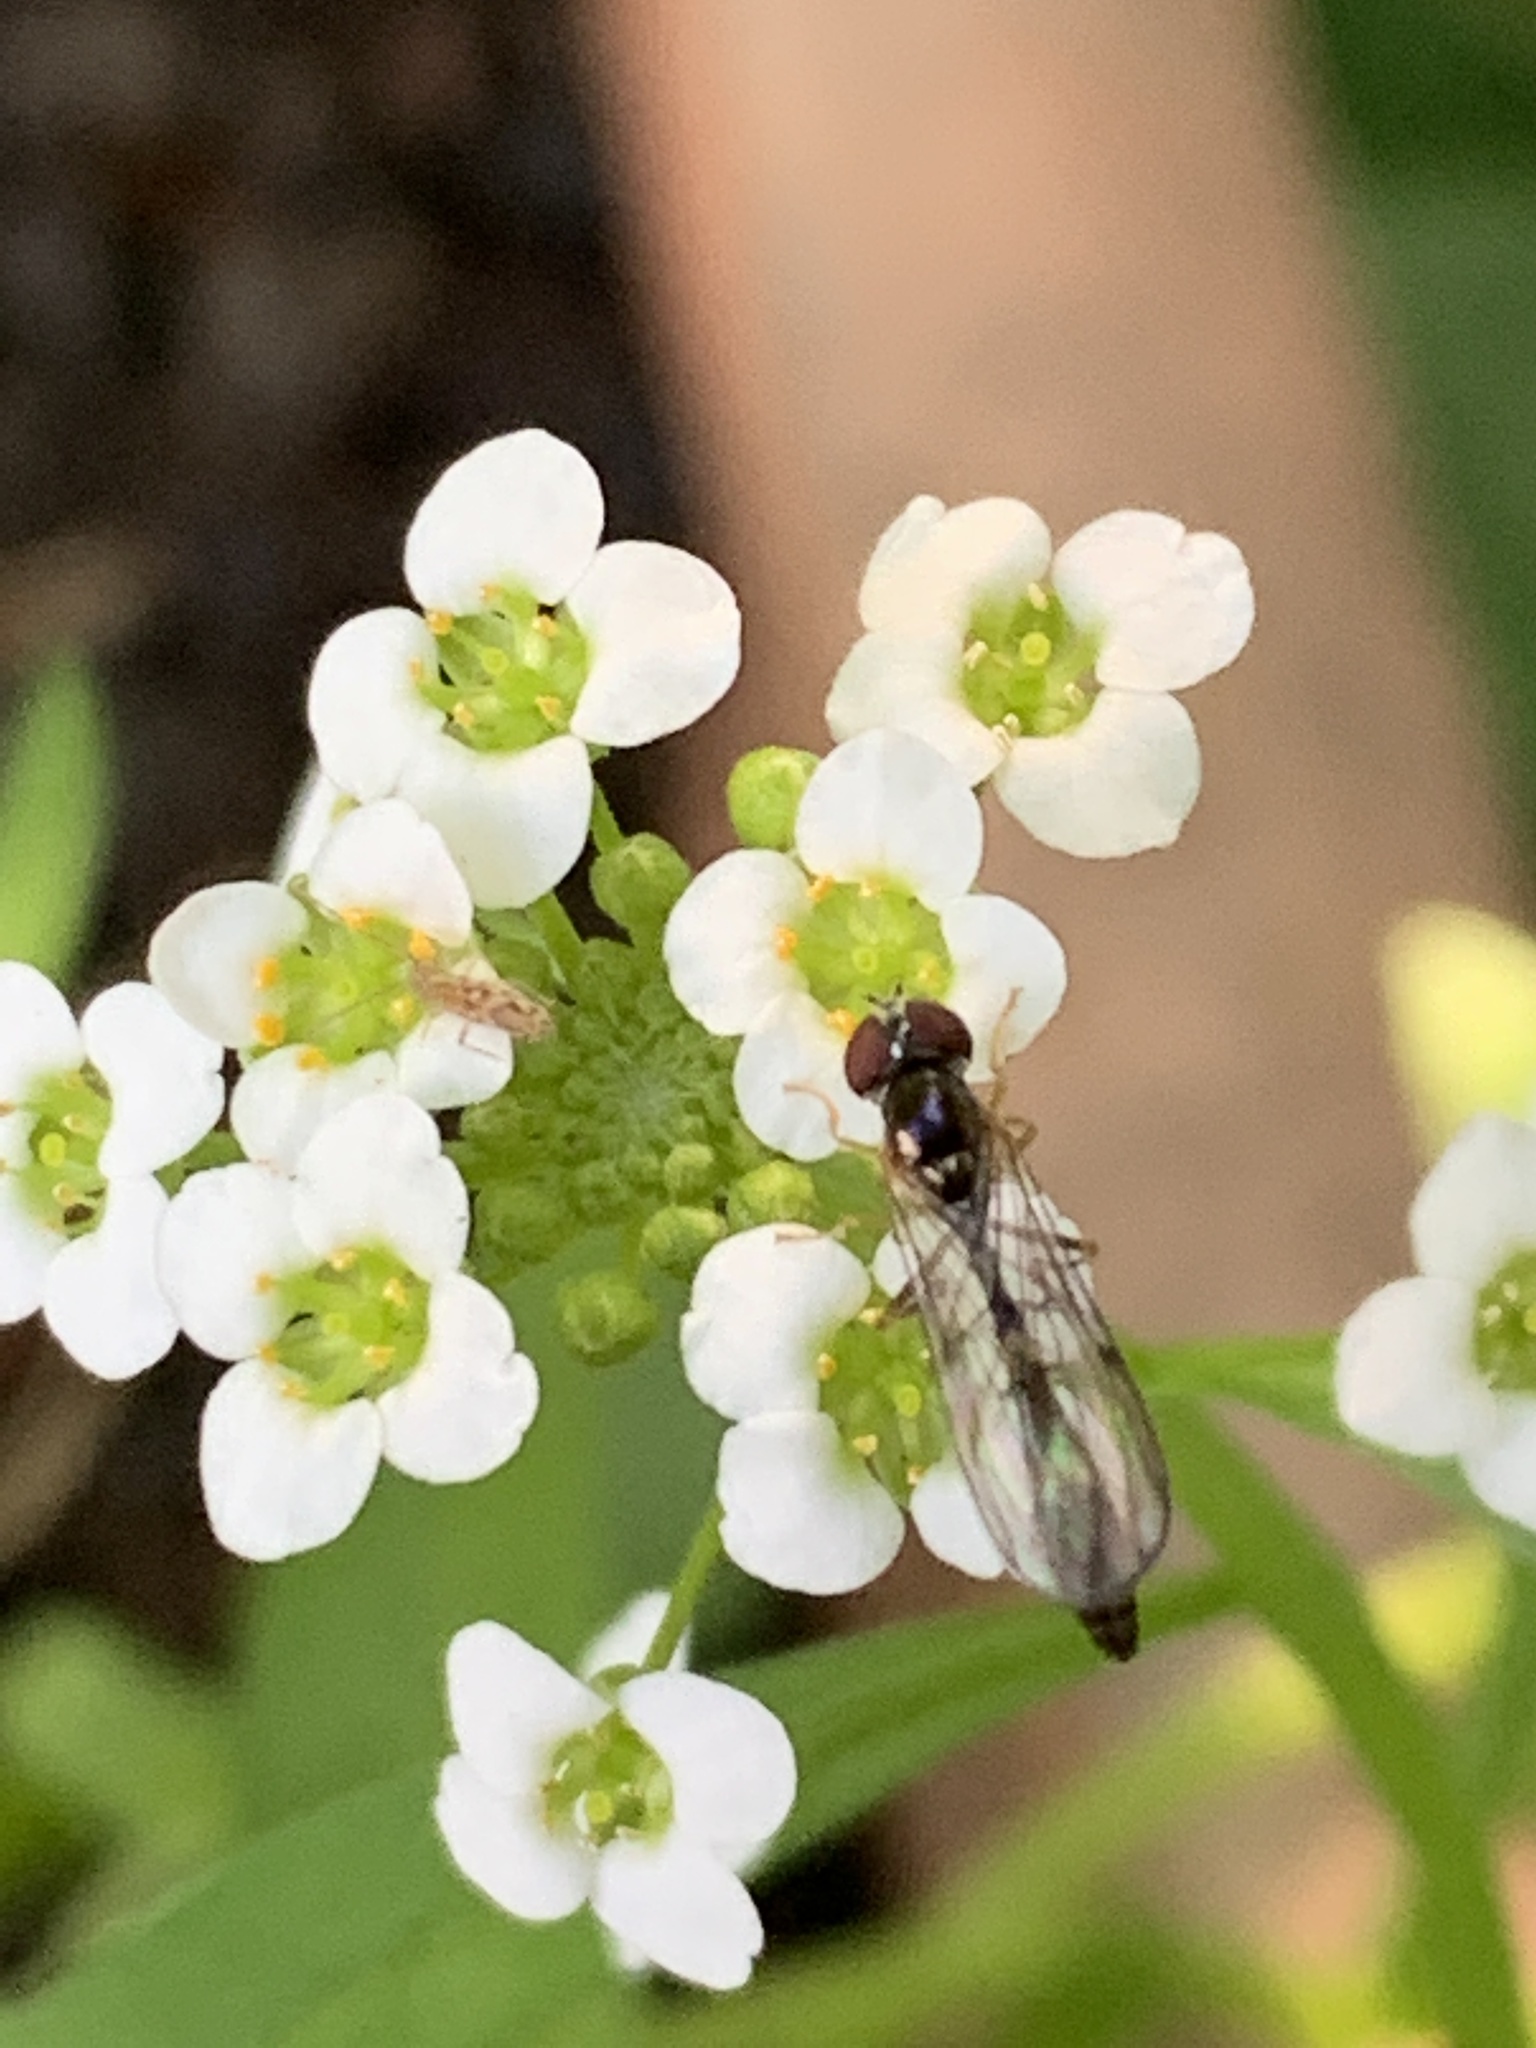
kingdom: Animalia
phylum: Arthropoda
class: Insecta
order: Diptera
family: Syrphidae
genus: Baccha
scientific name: Baccha elongata
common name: Common dainty
